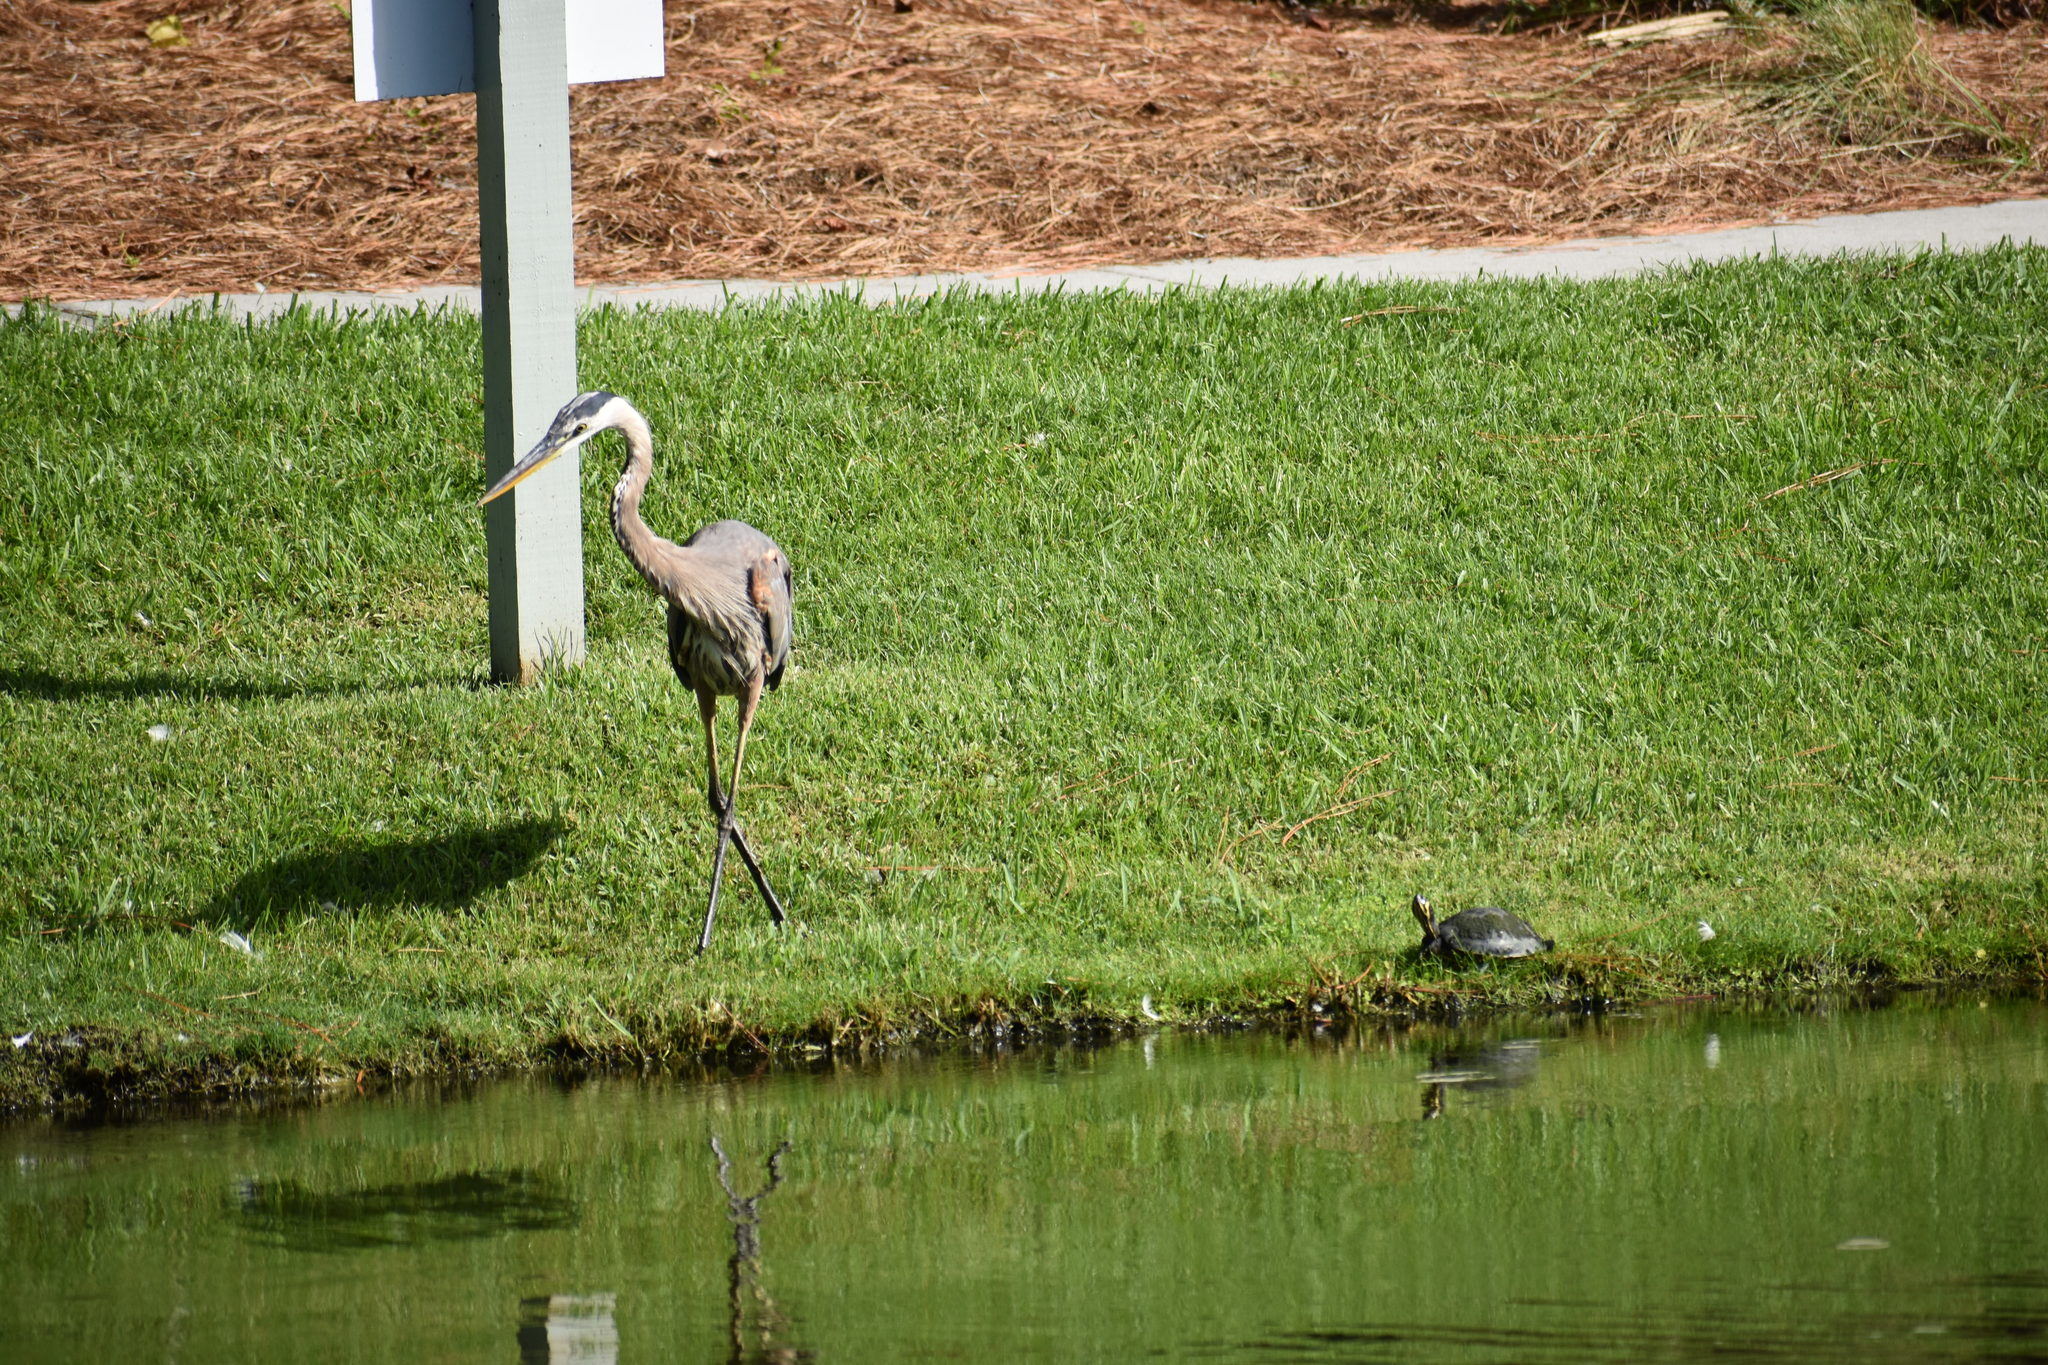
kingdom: Animalia
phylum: Chordata
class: Aves
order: Pelecaniformes
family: Ardeidae
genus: Ardea
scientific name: Ardea herodias
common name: Great blue heron
